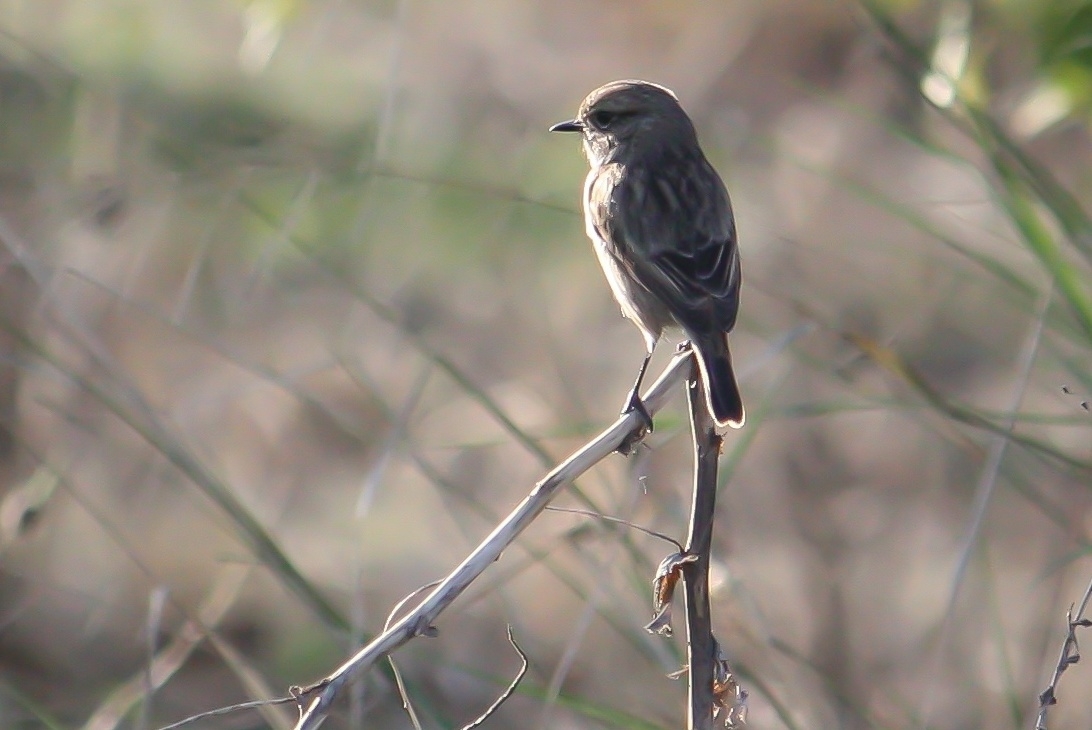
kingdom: Animalia
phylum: Chordata
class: Aves
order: Passeriformes
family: Muscicapidae
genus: Saxicola
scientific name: Saxicola rubicola
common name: European stonechat
